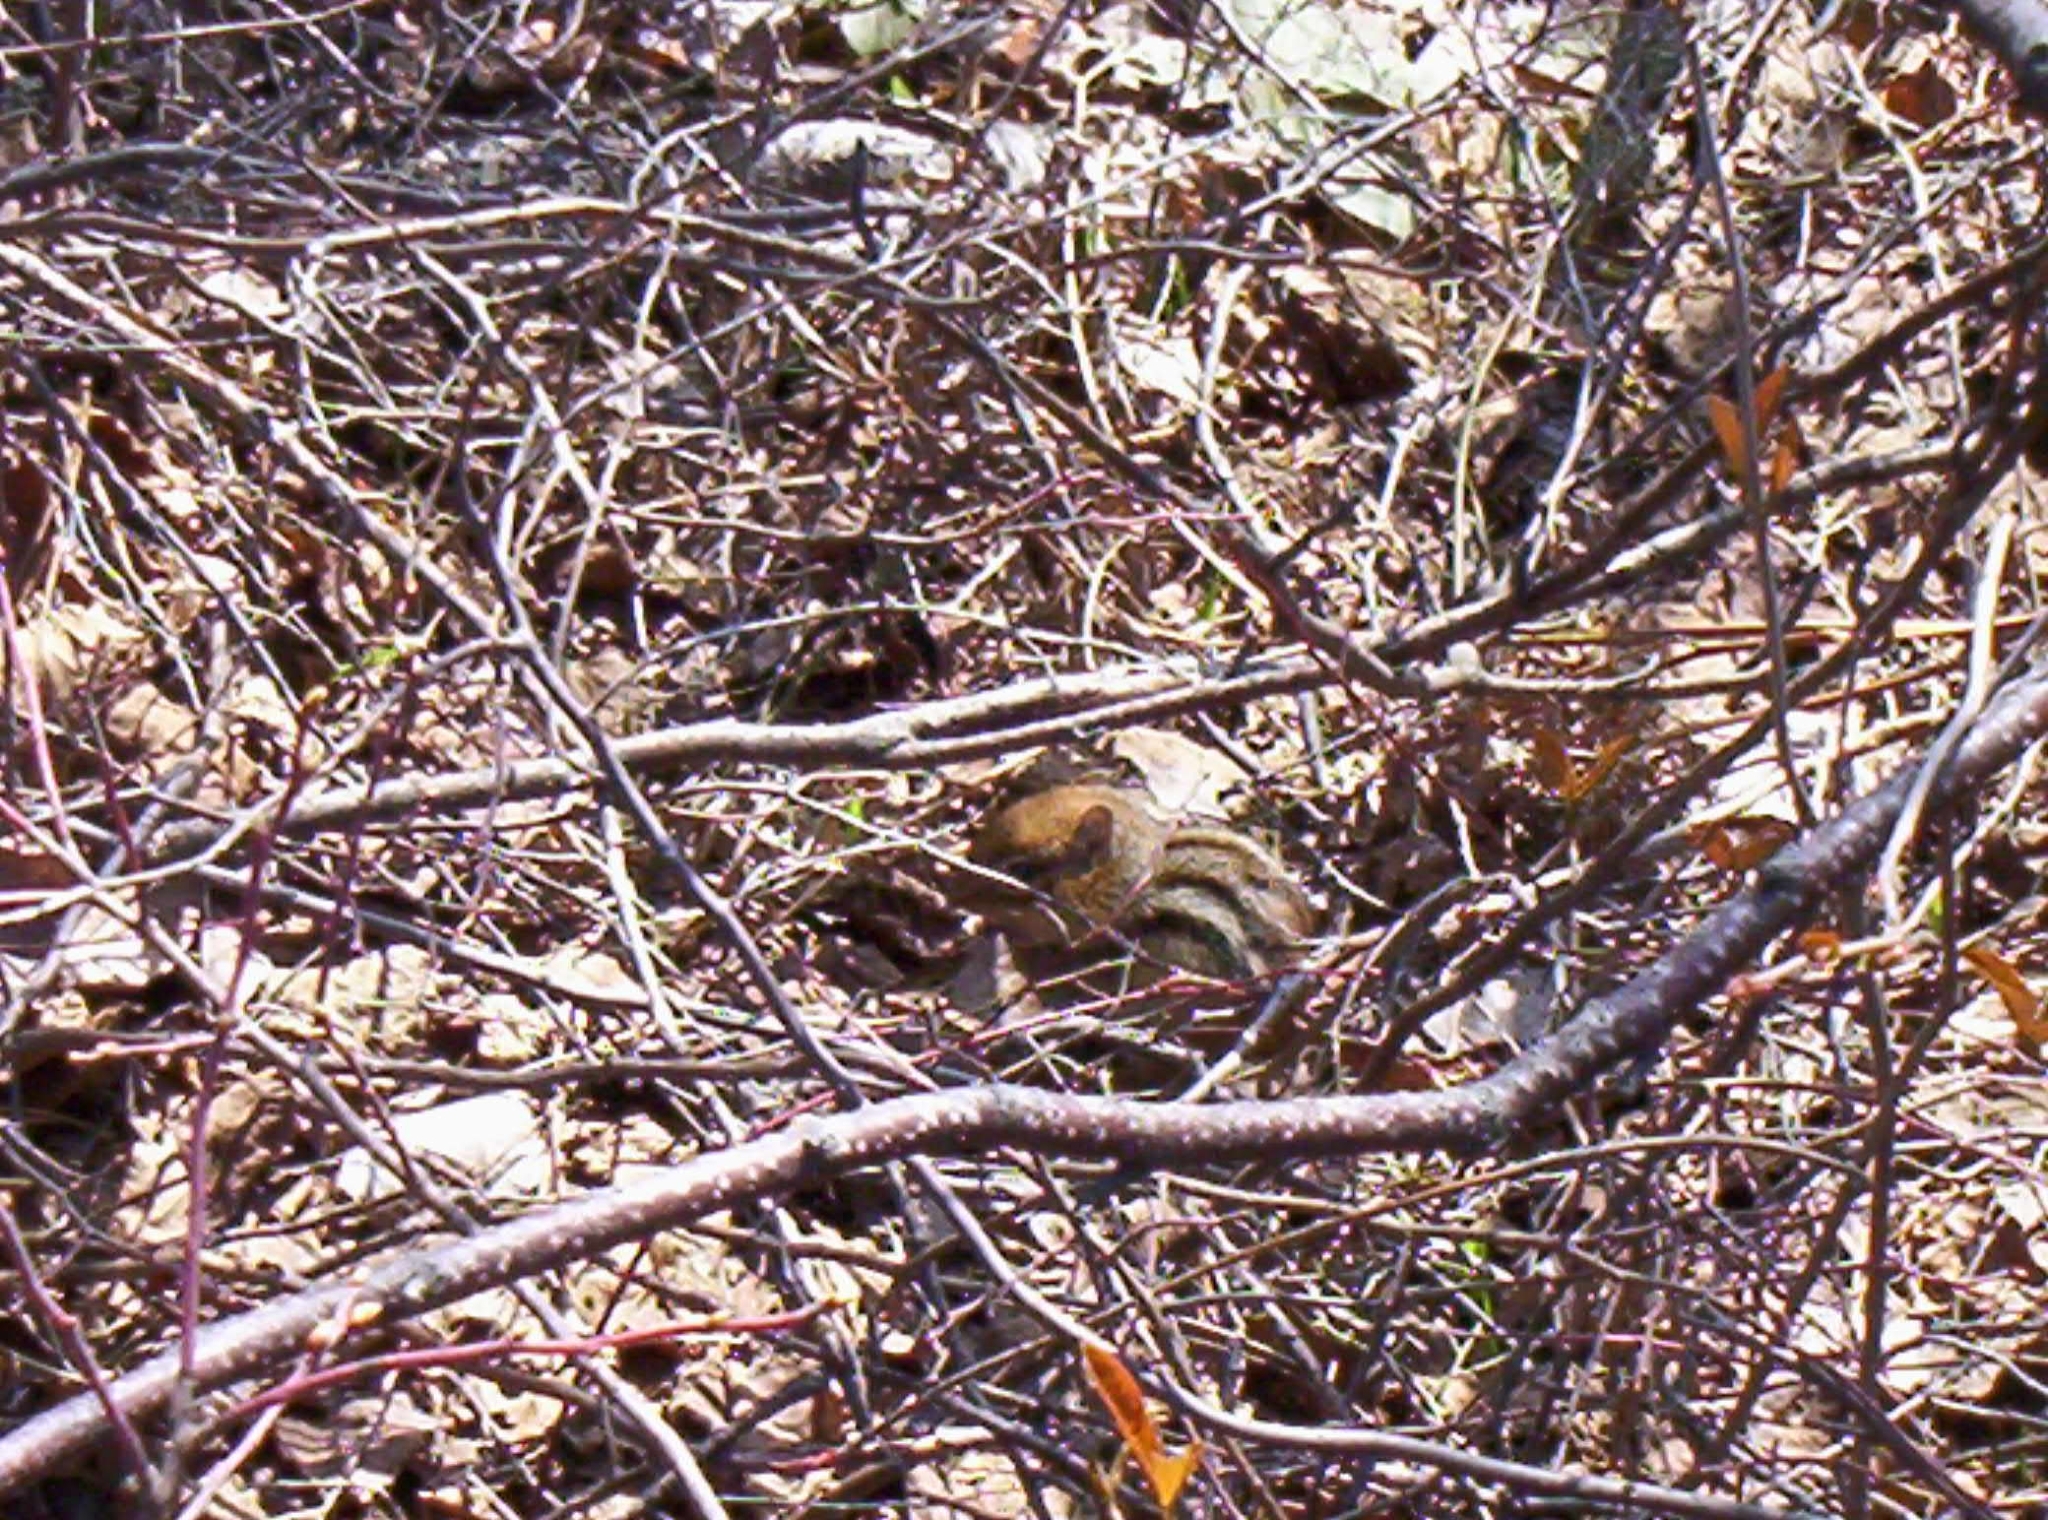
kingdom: Animalia
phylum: Chordata
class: Mammalia
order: Rodentia
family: Sciuridae
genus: Tamias
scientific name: Tamias striatus
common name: Eastern chipmunk
